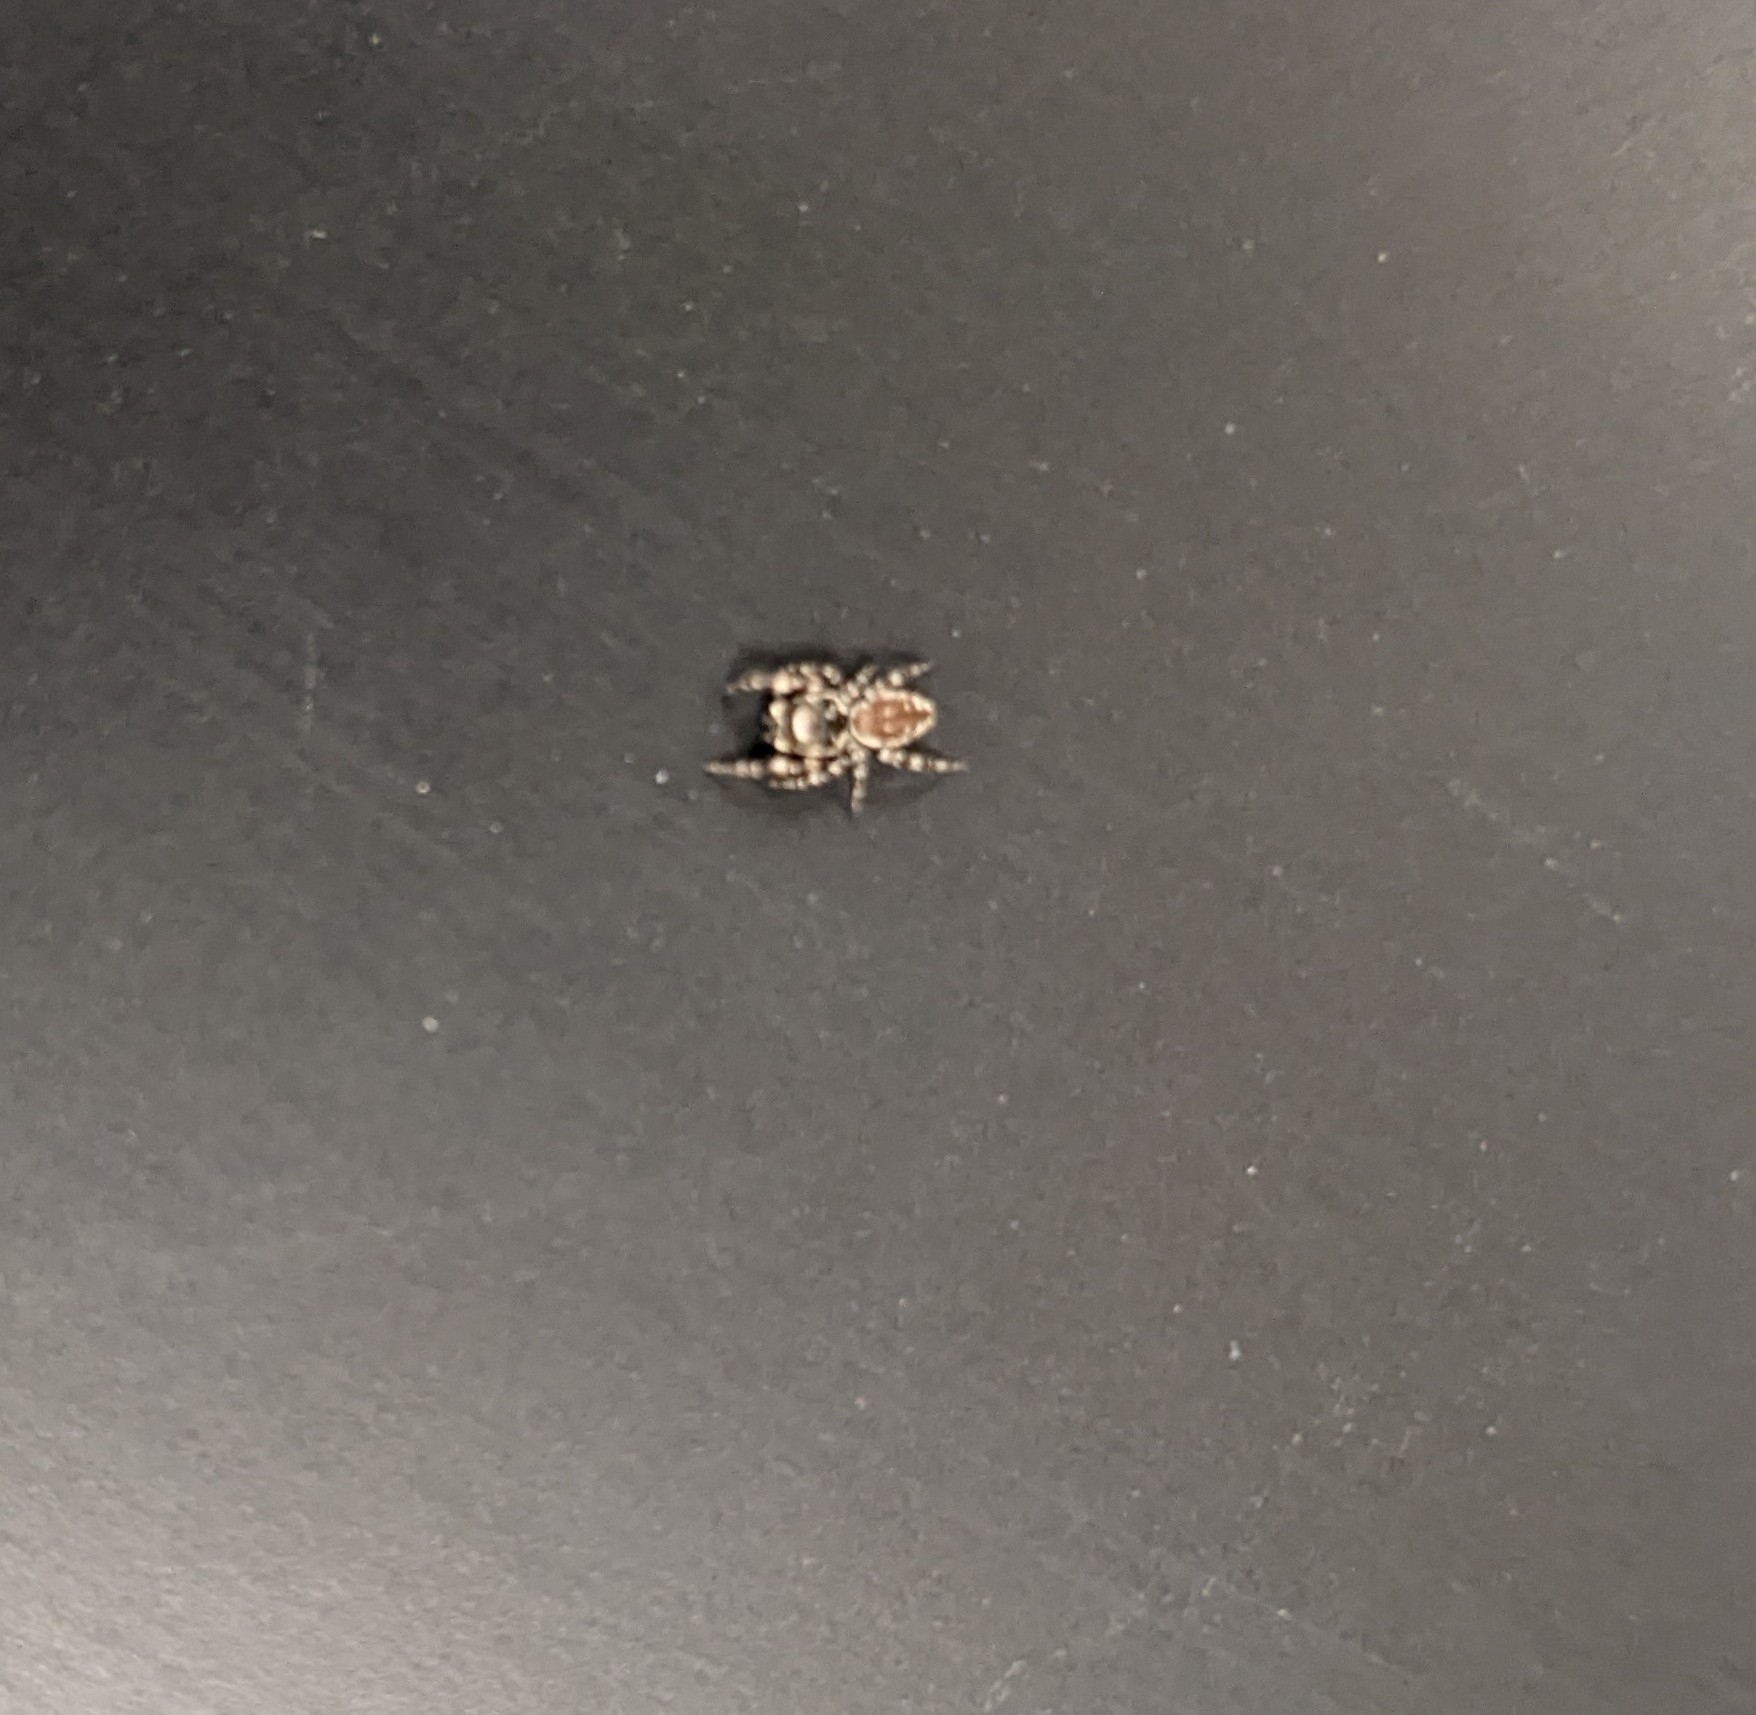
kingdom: Animalia
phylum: Arthropoda
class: Arachnida
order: Araneae
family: Salticidae
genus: Metaphidippus
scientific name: Metaphidippus chera
